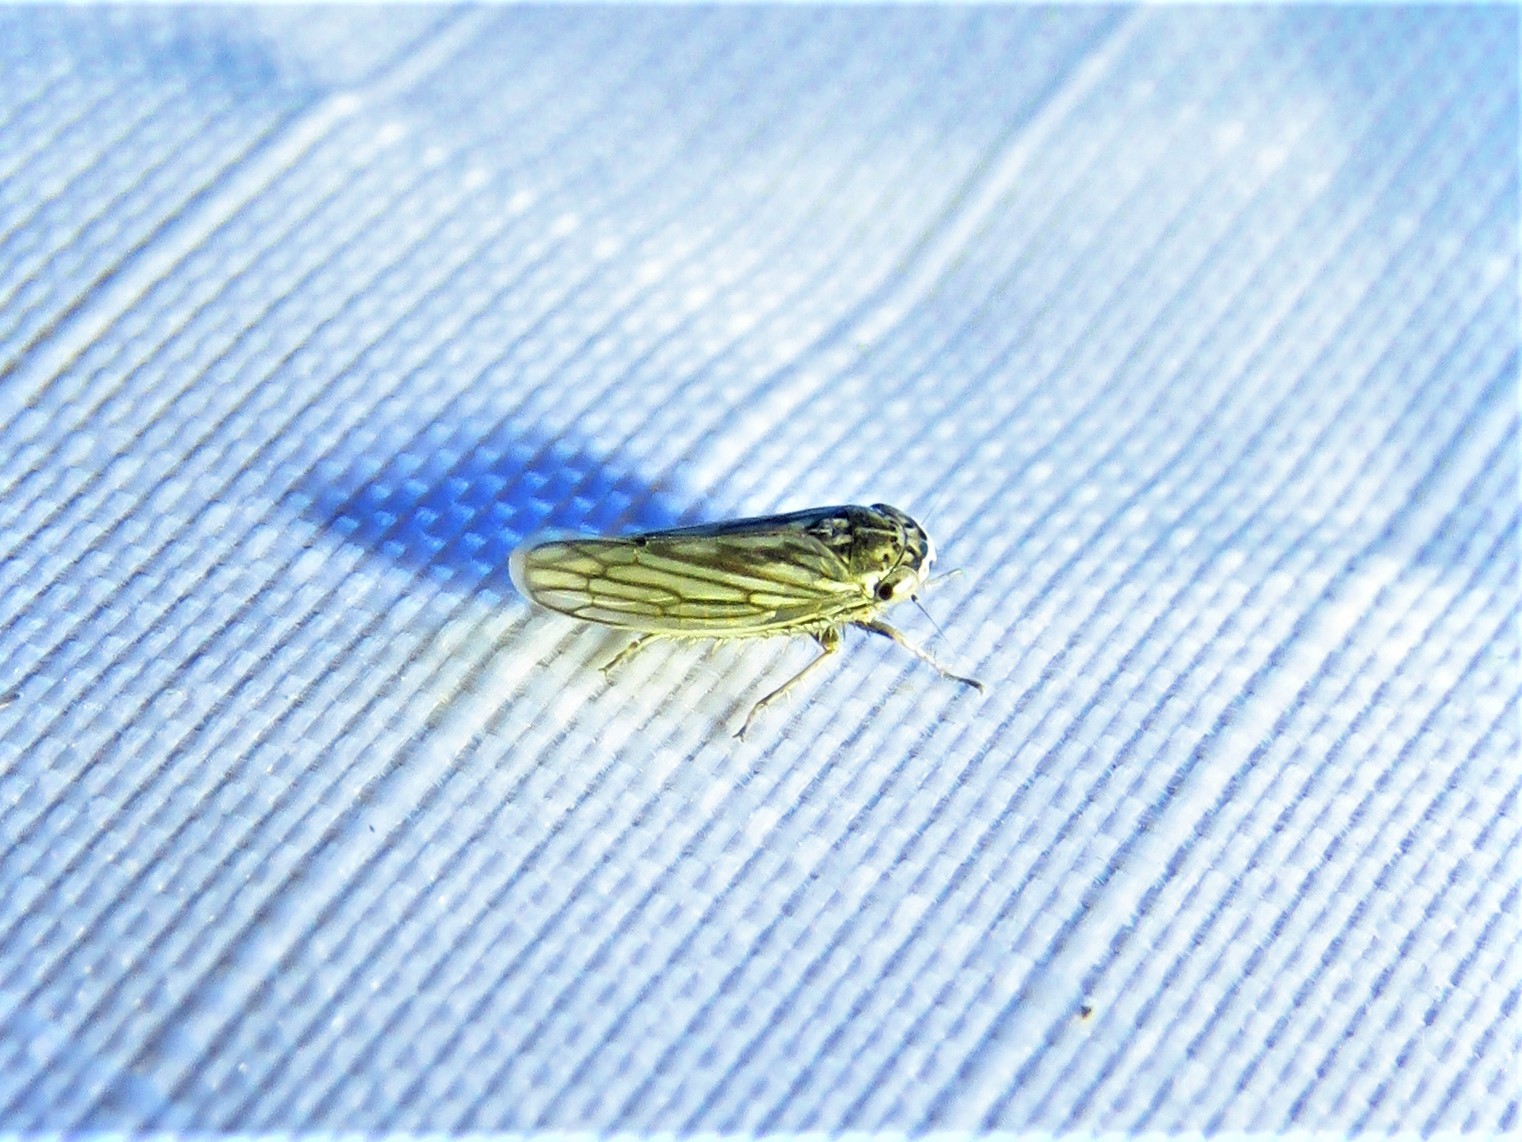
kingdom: Animalia
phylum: Arthropoda
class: Insecta
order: Hemiptera
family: Cicadellidae
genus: Exitianus
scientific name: Exitianus exitiosus
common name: Gray lawn leafhopper
